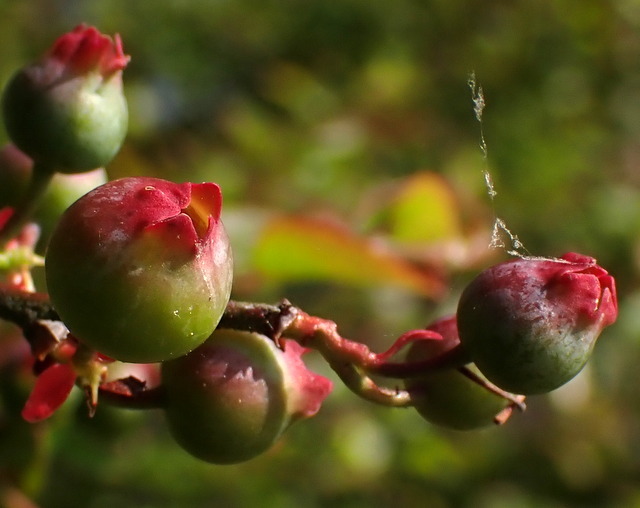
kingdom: Plantae
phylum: Tracheophyta
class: Magnoliopsida
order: Ericales
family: Ericaceae
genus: Vaccinium
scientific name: Vaccinium corymbosum
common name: Blueberry
